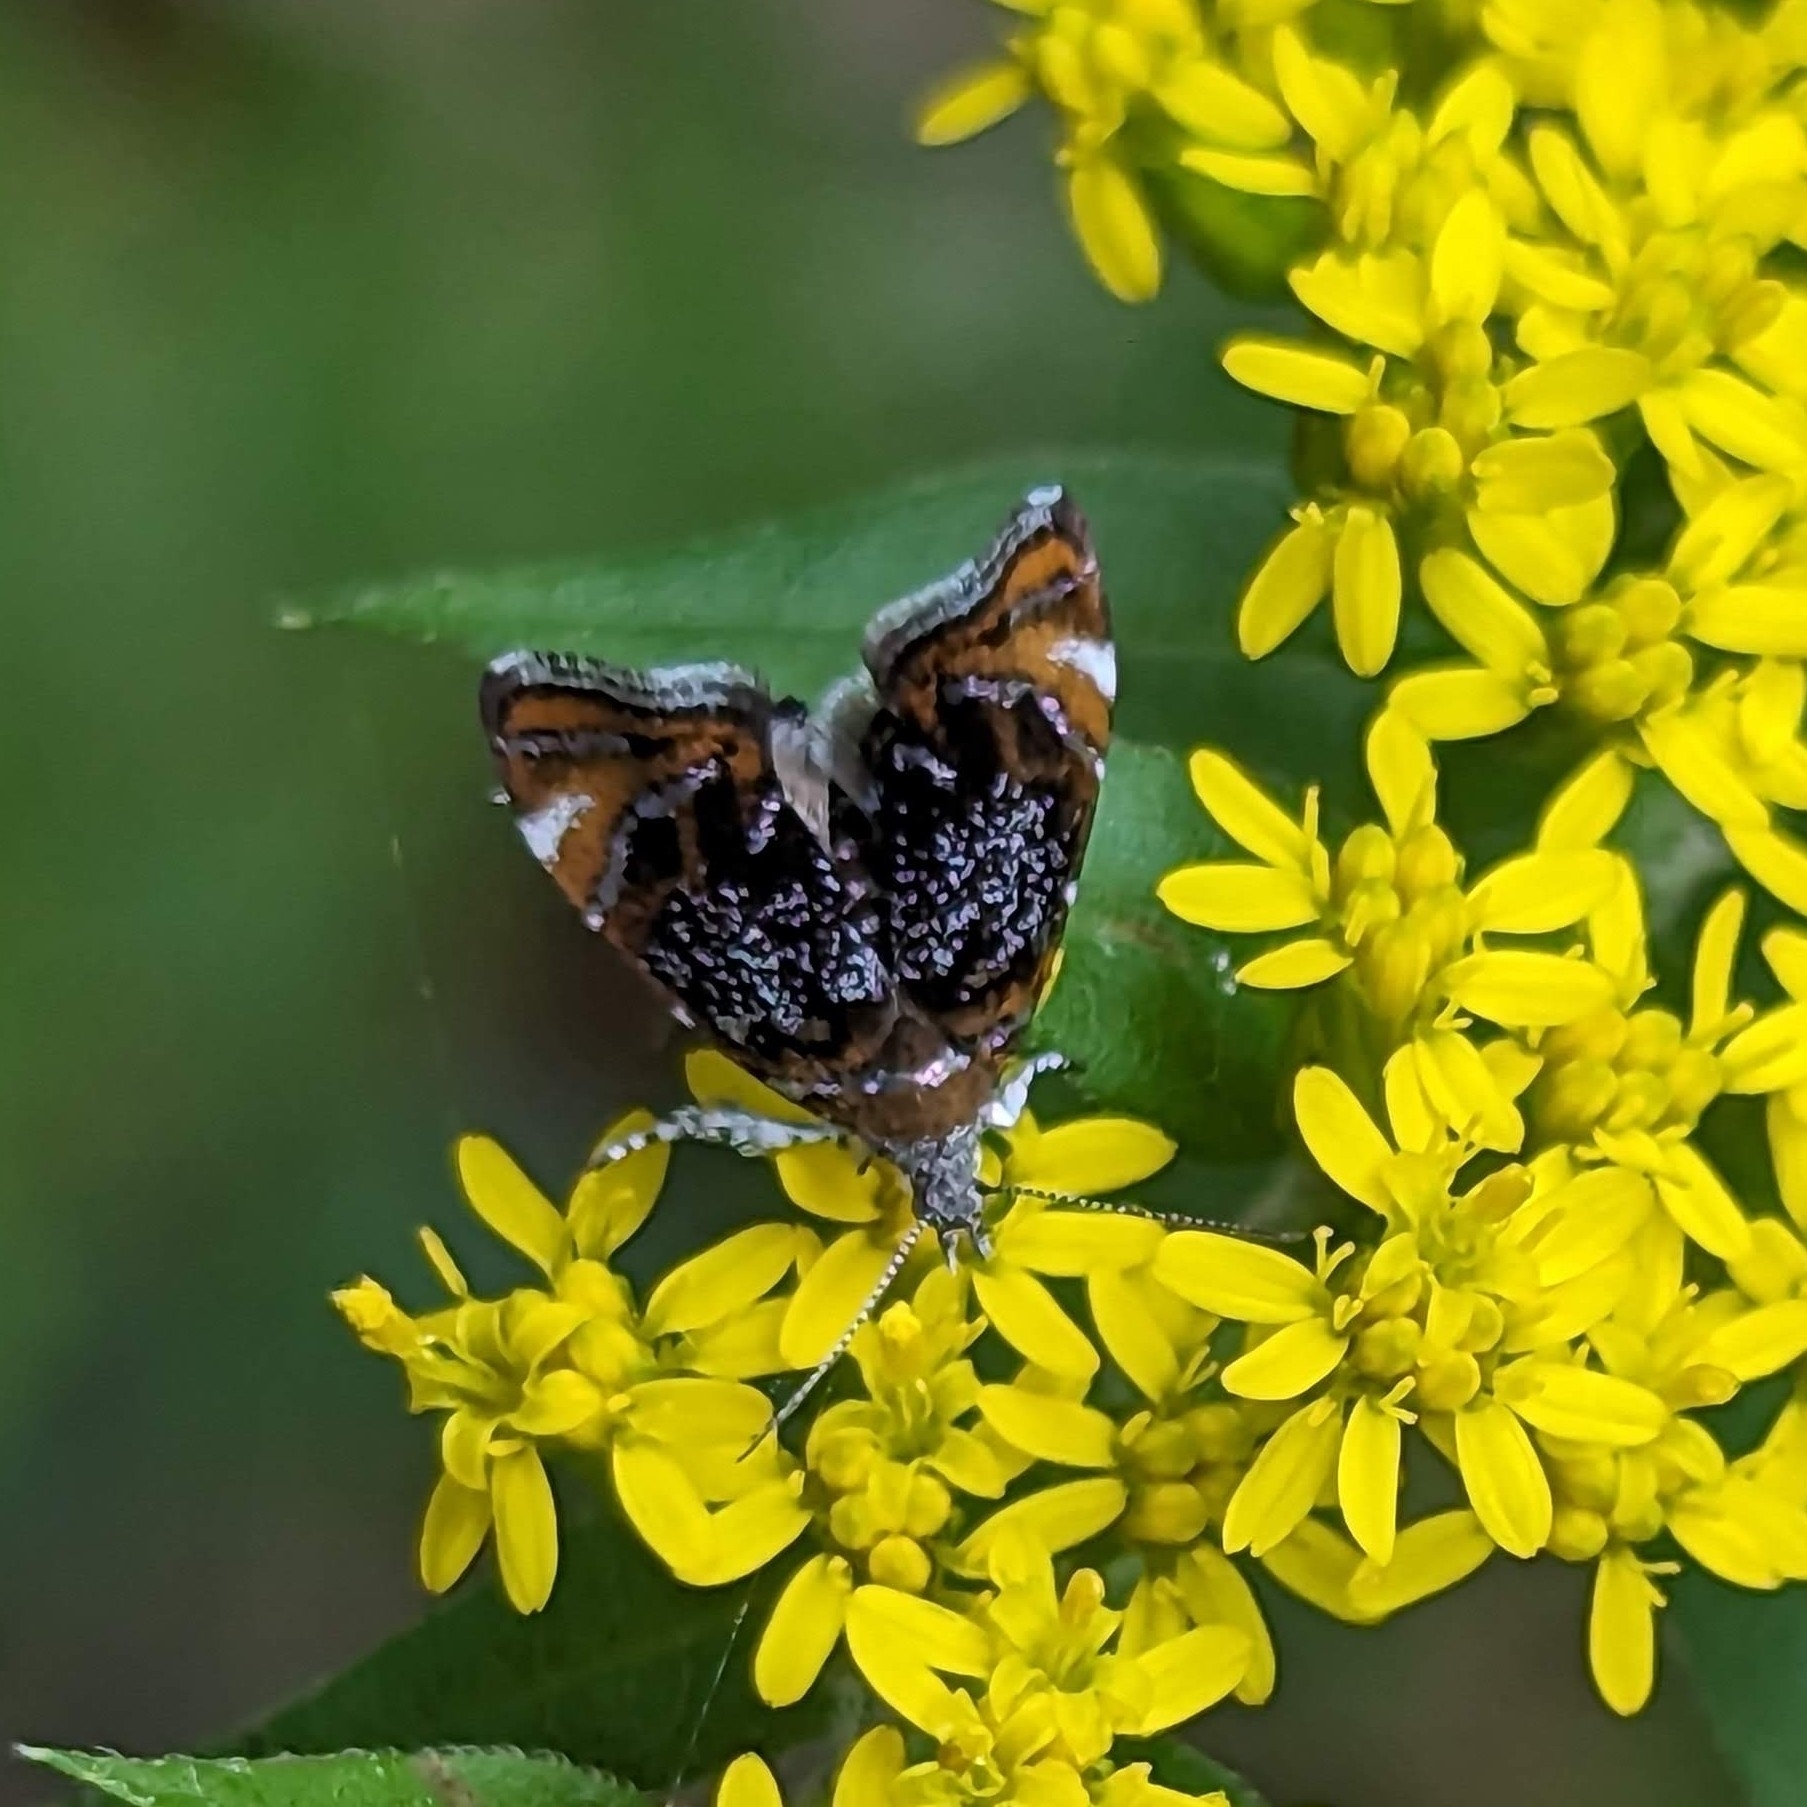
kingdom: Animalia
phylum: Arthropoda
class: Insecta
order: Lepidoptera
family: Choreutidae
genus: Prochoreutis
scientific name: Prochoreutis inflatella
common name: Skullcap skeletonizer moth
